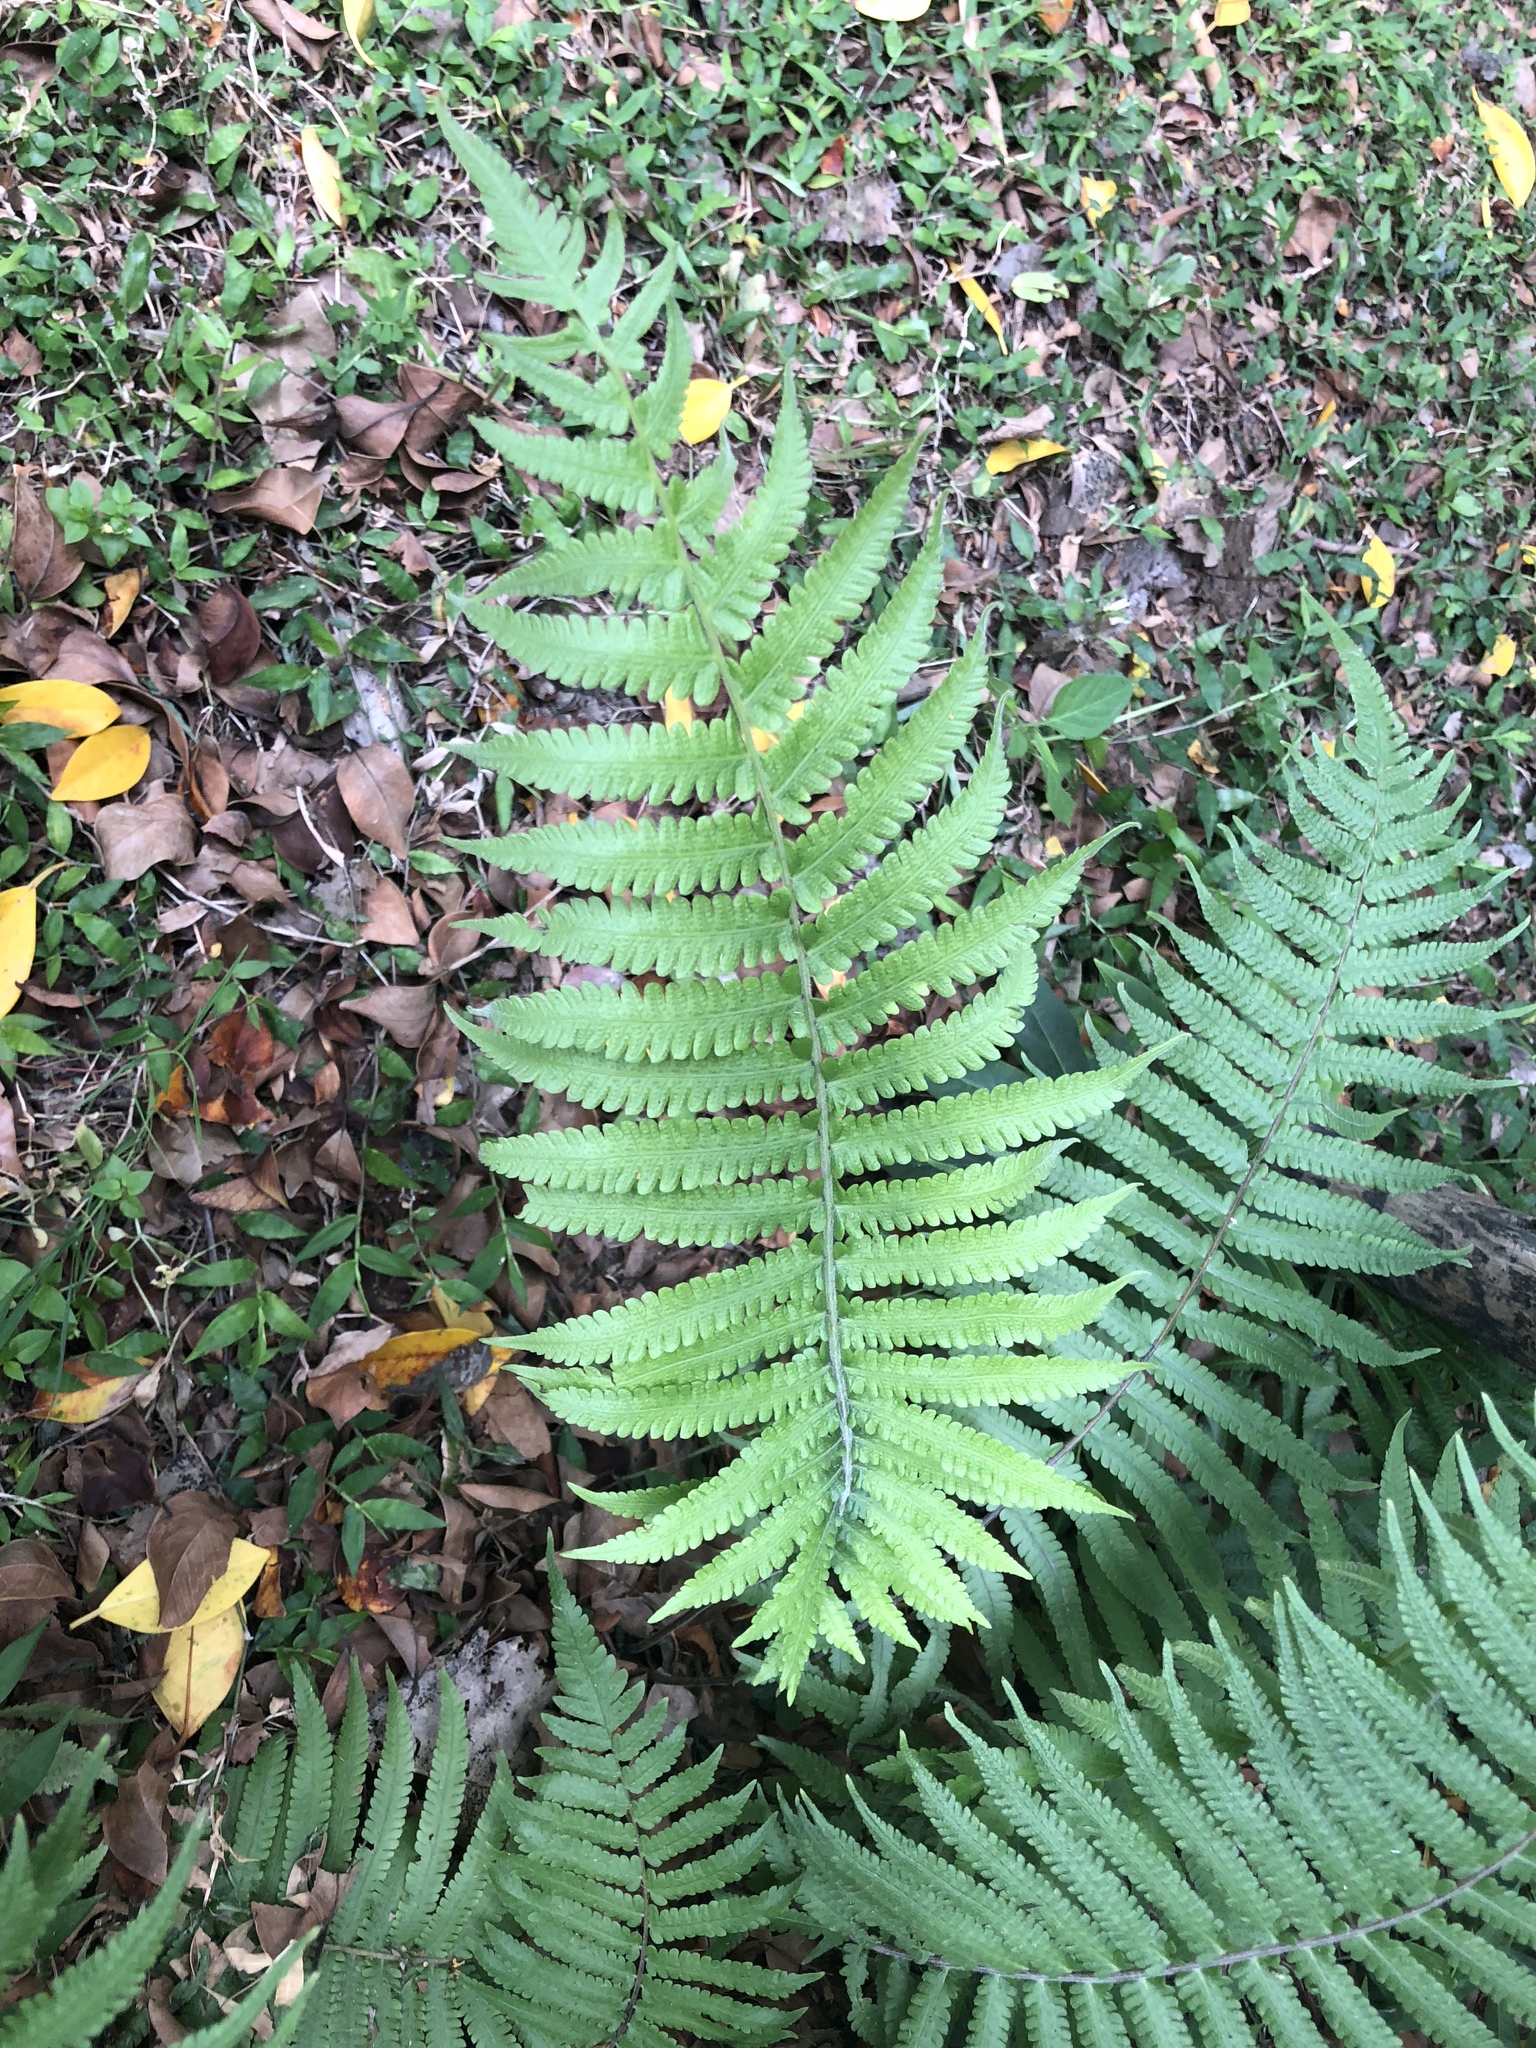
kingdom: Plantae
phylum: Tracheophyta
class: Polypodiopsida
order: Polypodiales
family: Thelypteridaceae
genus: Christella
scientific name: Christella parasitica
